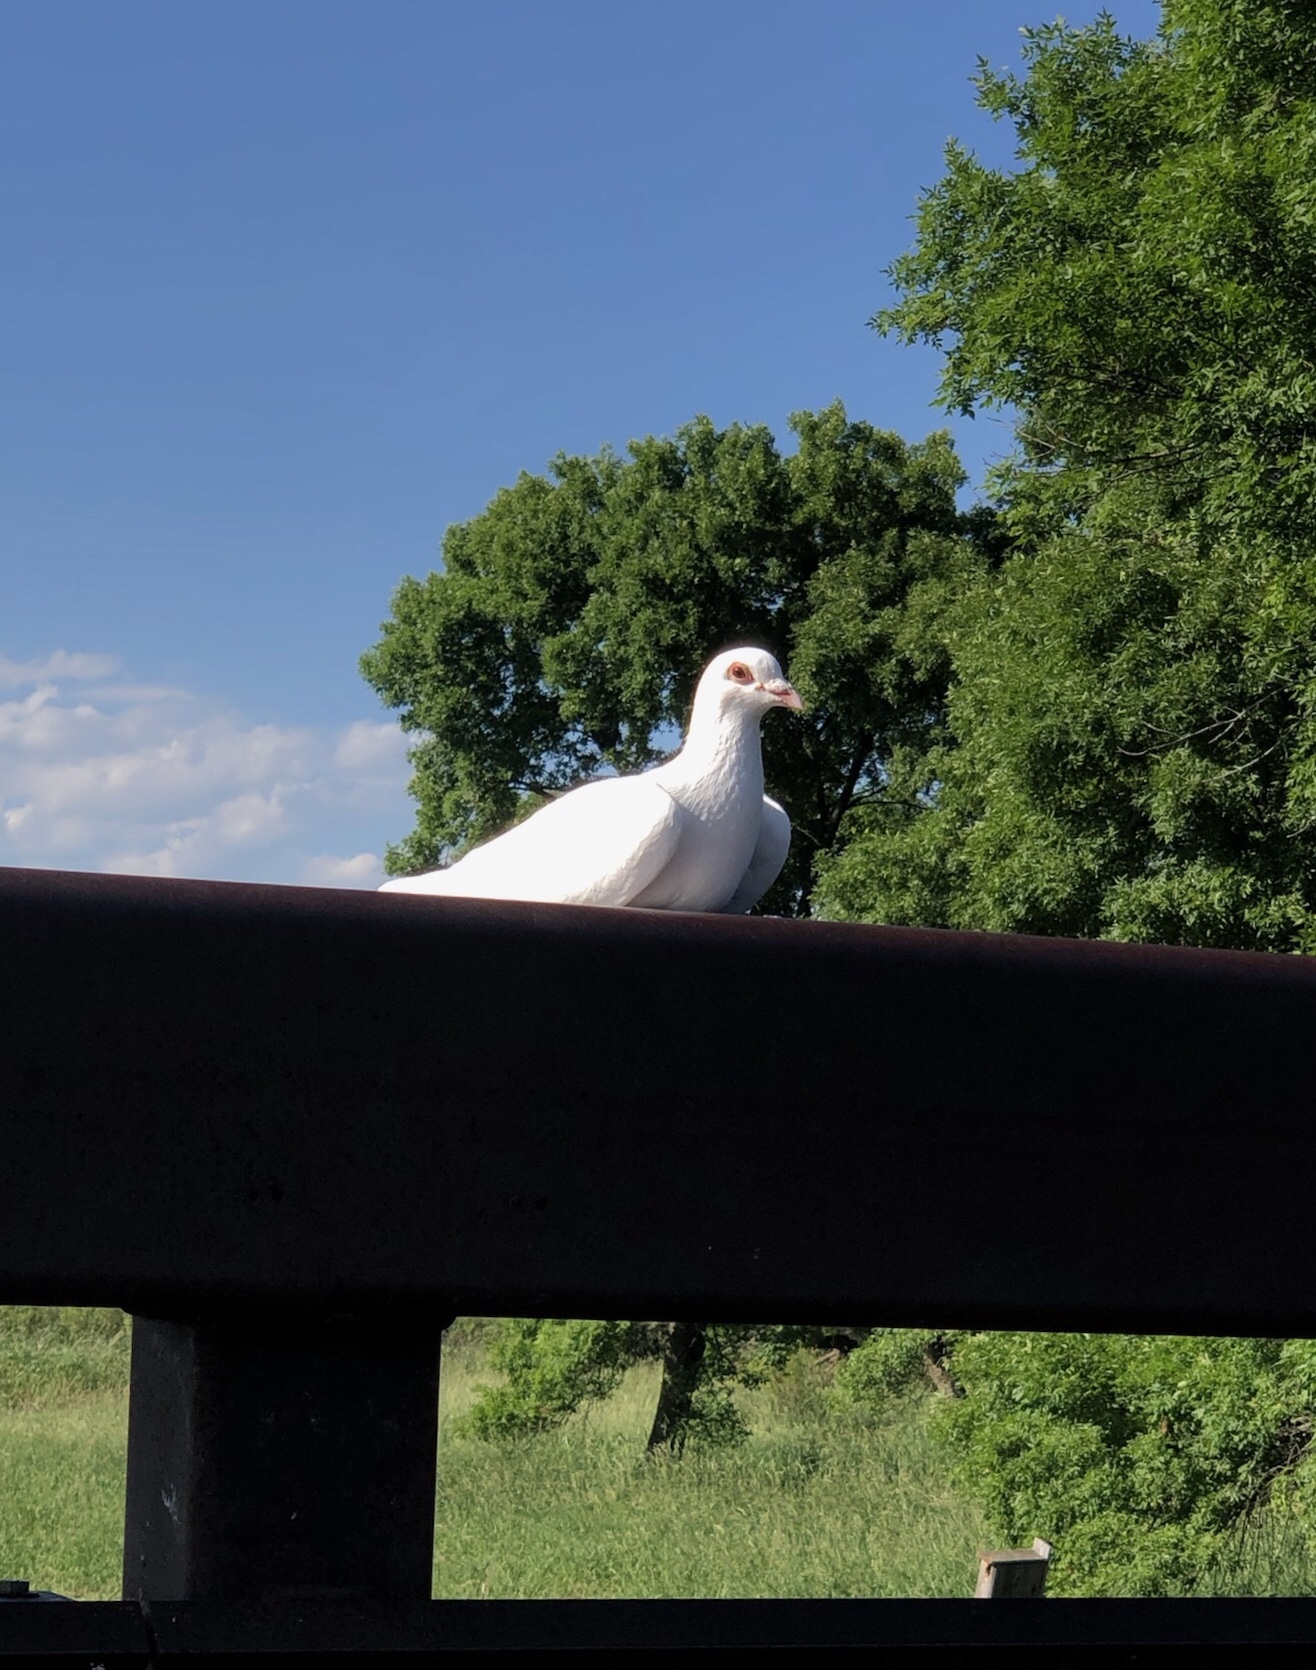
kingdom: Animalia
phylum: Chordata
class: Aves
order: Columbiformes
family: Columbidae
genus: Columba
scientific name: Columba livia
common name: Rock pigeon
